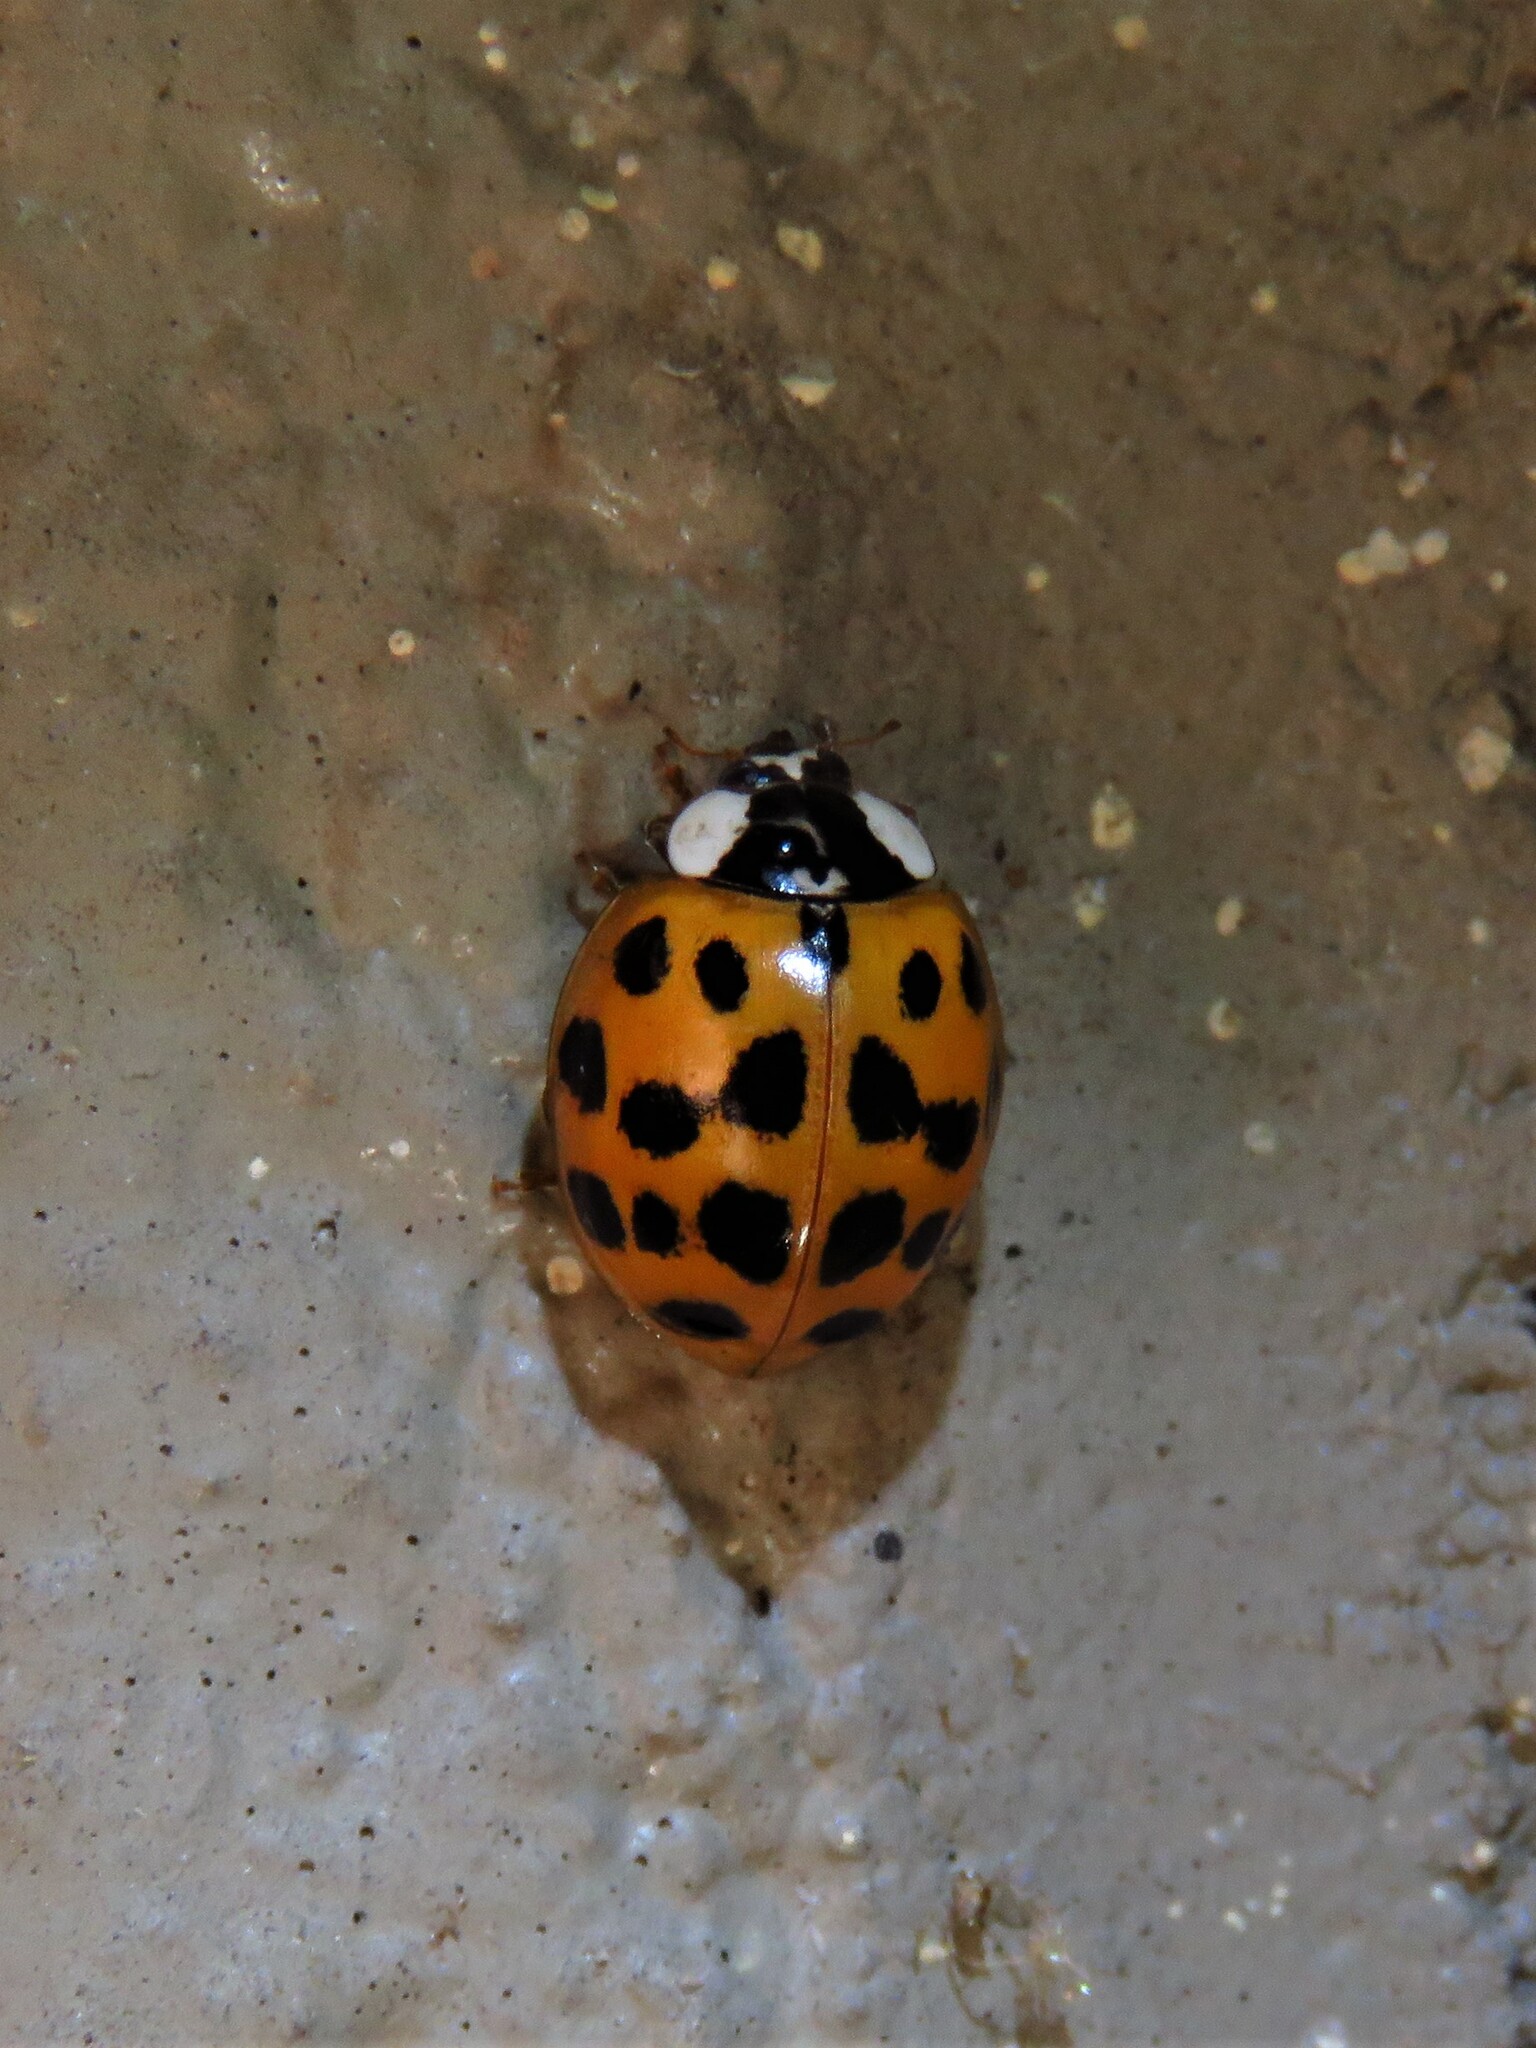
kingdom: Animalia
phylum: Arthropoda
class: Insecta
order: Coleoptera
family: Coccinellidae
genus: Harmonia
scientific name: Harmonia axyridis
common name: Harlequin ladybird
